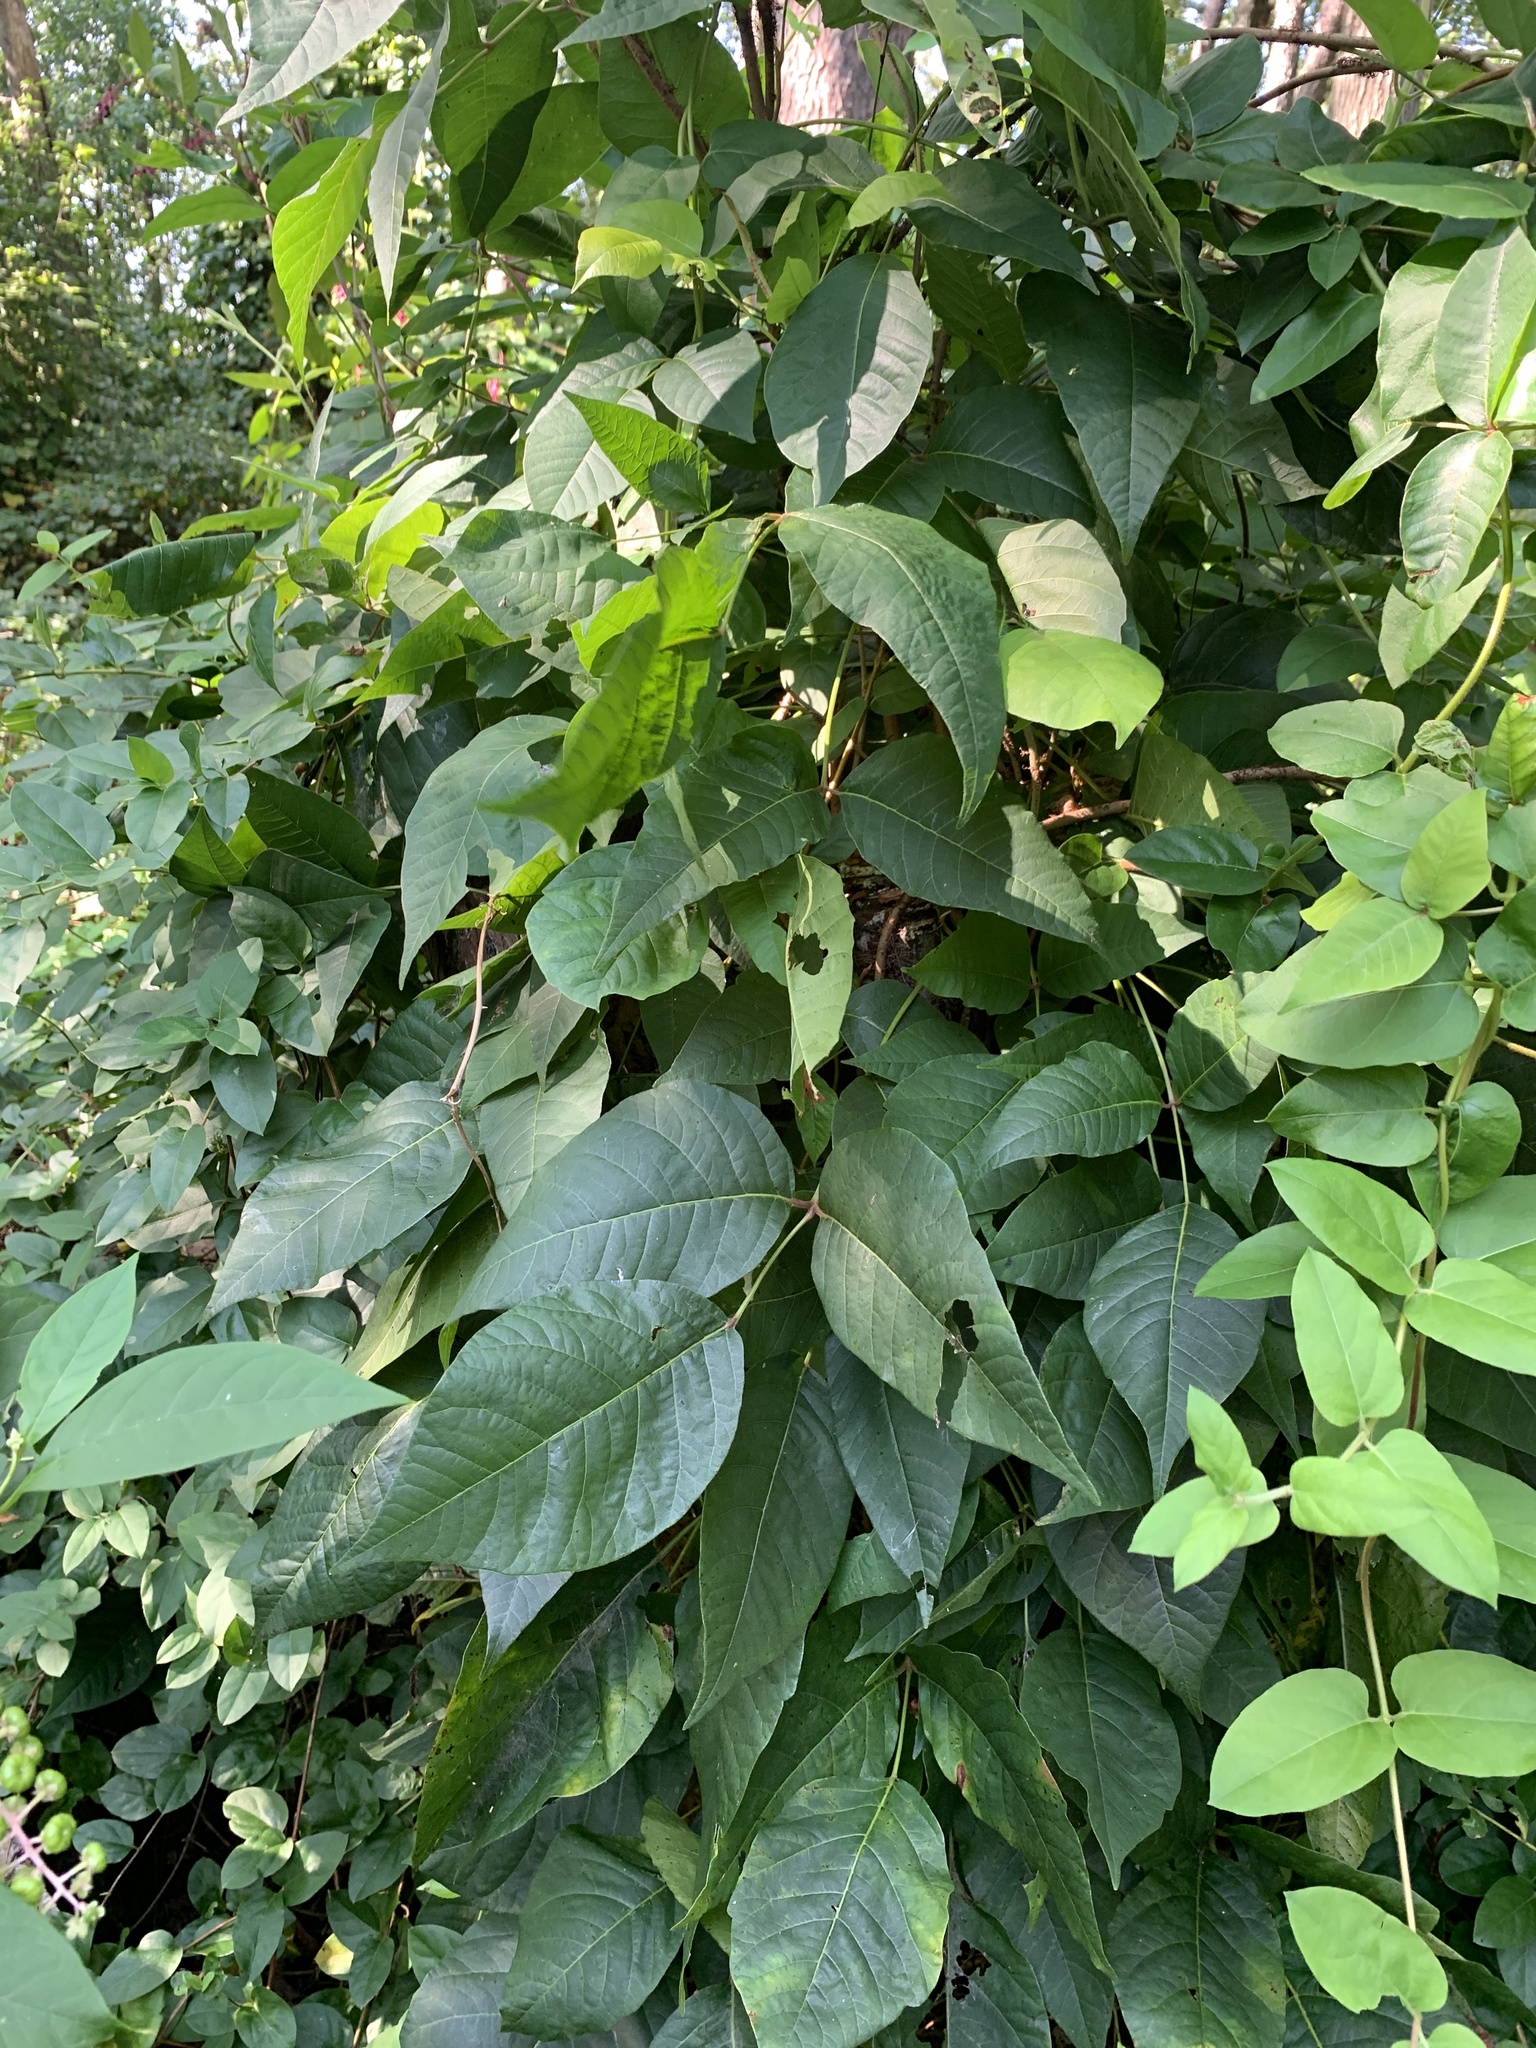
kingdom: Plantae
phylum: Tracheophyta
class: Magnoliopsida
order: Sapindales
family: Anacardiaceae
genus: Toxicodendron
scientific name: Toxicodendron radicans
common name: Poison ivy
